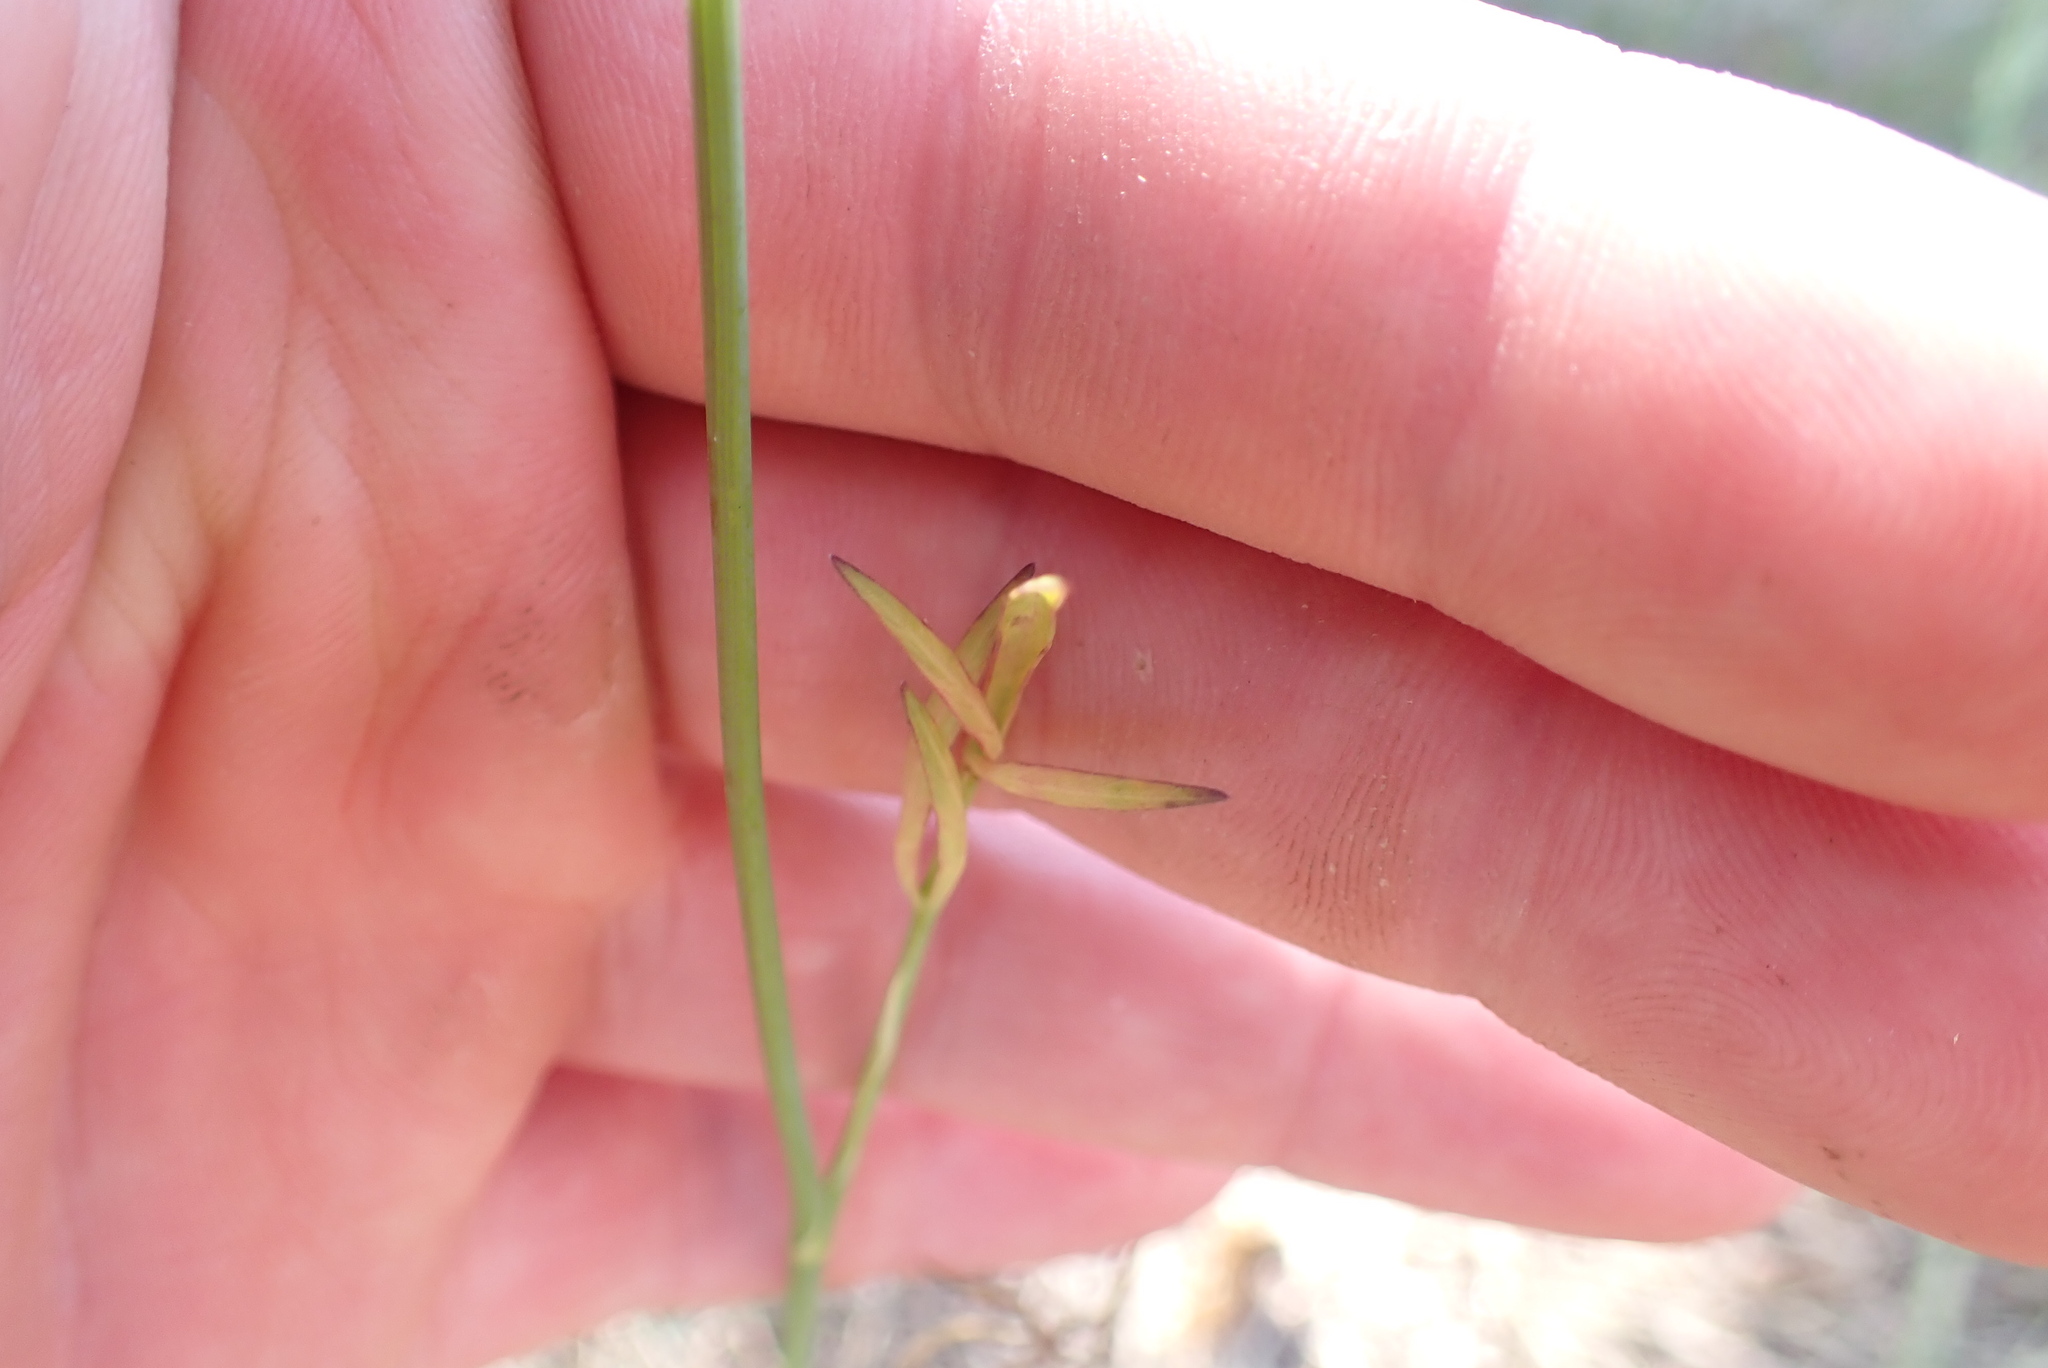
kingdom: Plantae
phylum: Tracheophyta
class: Magnoliopsida
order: Apiales
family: Apiaceae
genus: Perideridia
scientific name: Perideridia gairdneri
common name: False caraway
